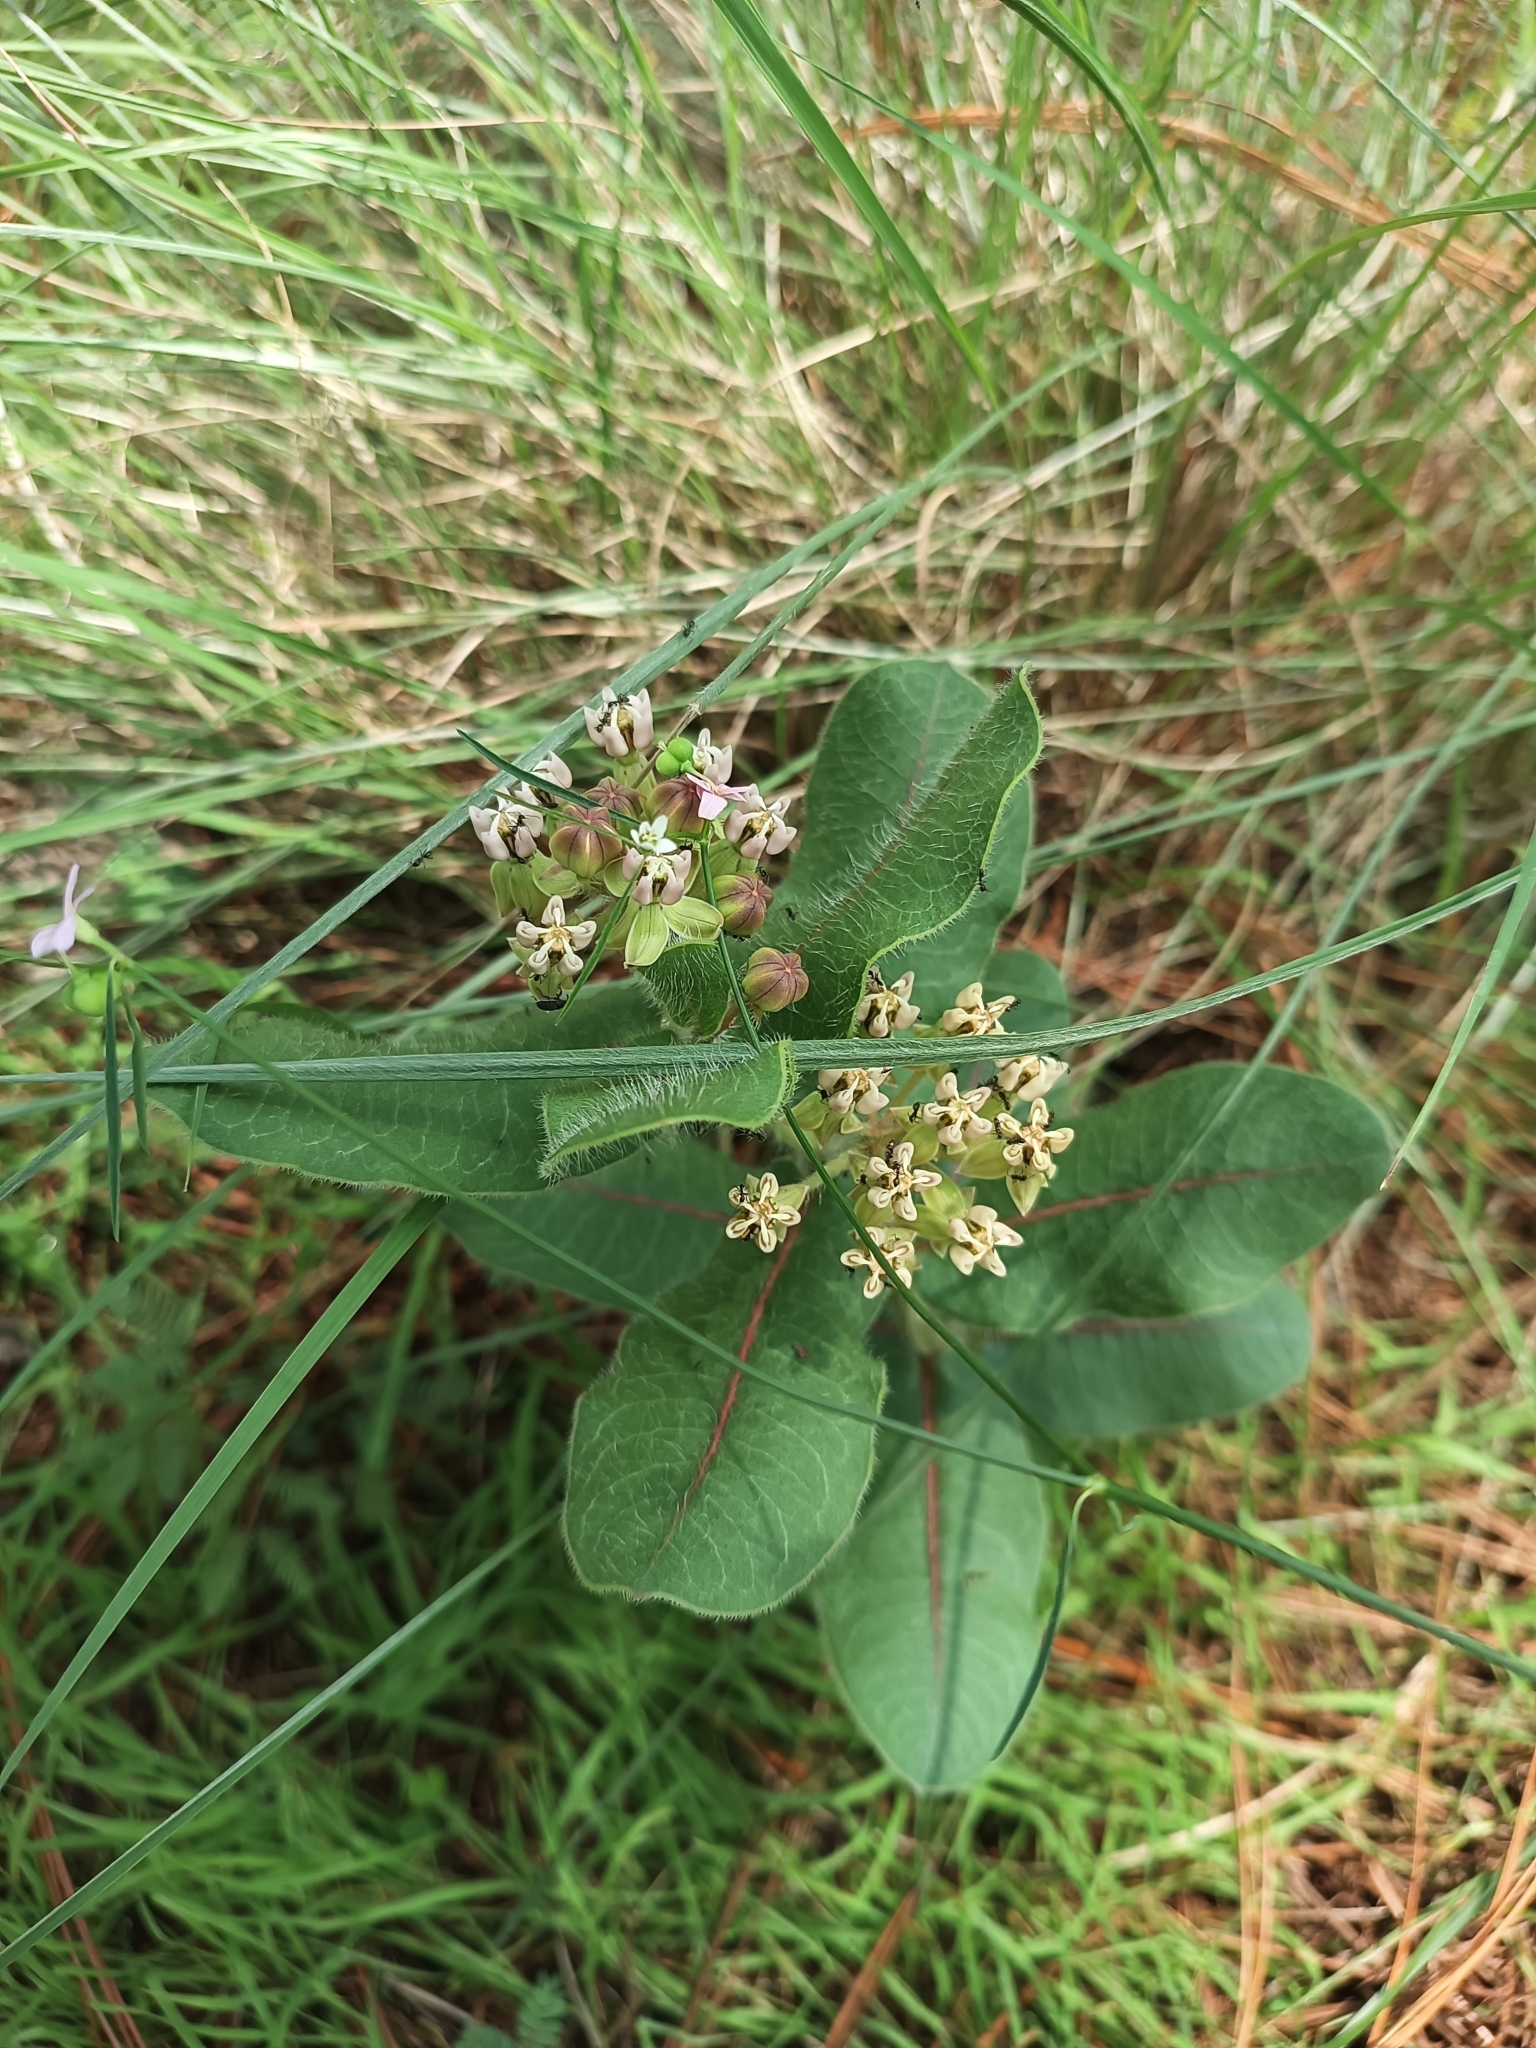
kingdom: Plantae
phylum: Tracheophyta
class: Magnoliopsida
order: Gentianales
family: Apocynaceae
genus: Asclepias
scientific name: Asclepias jaliscana
